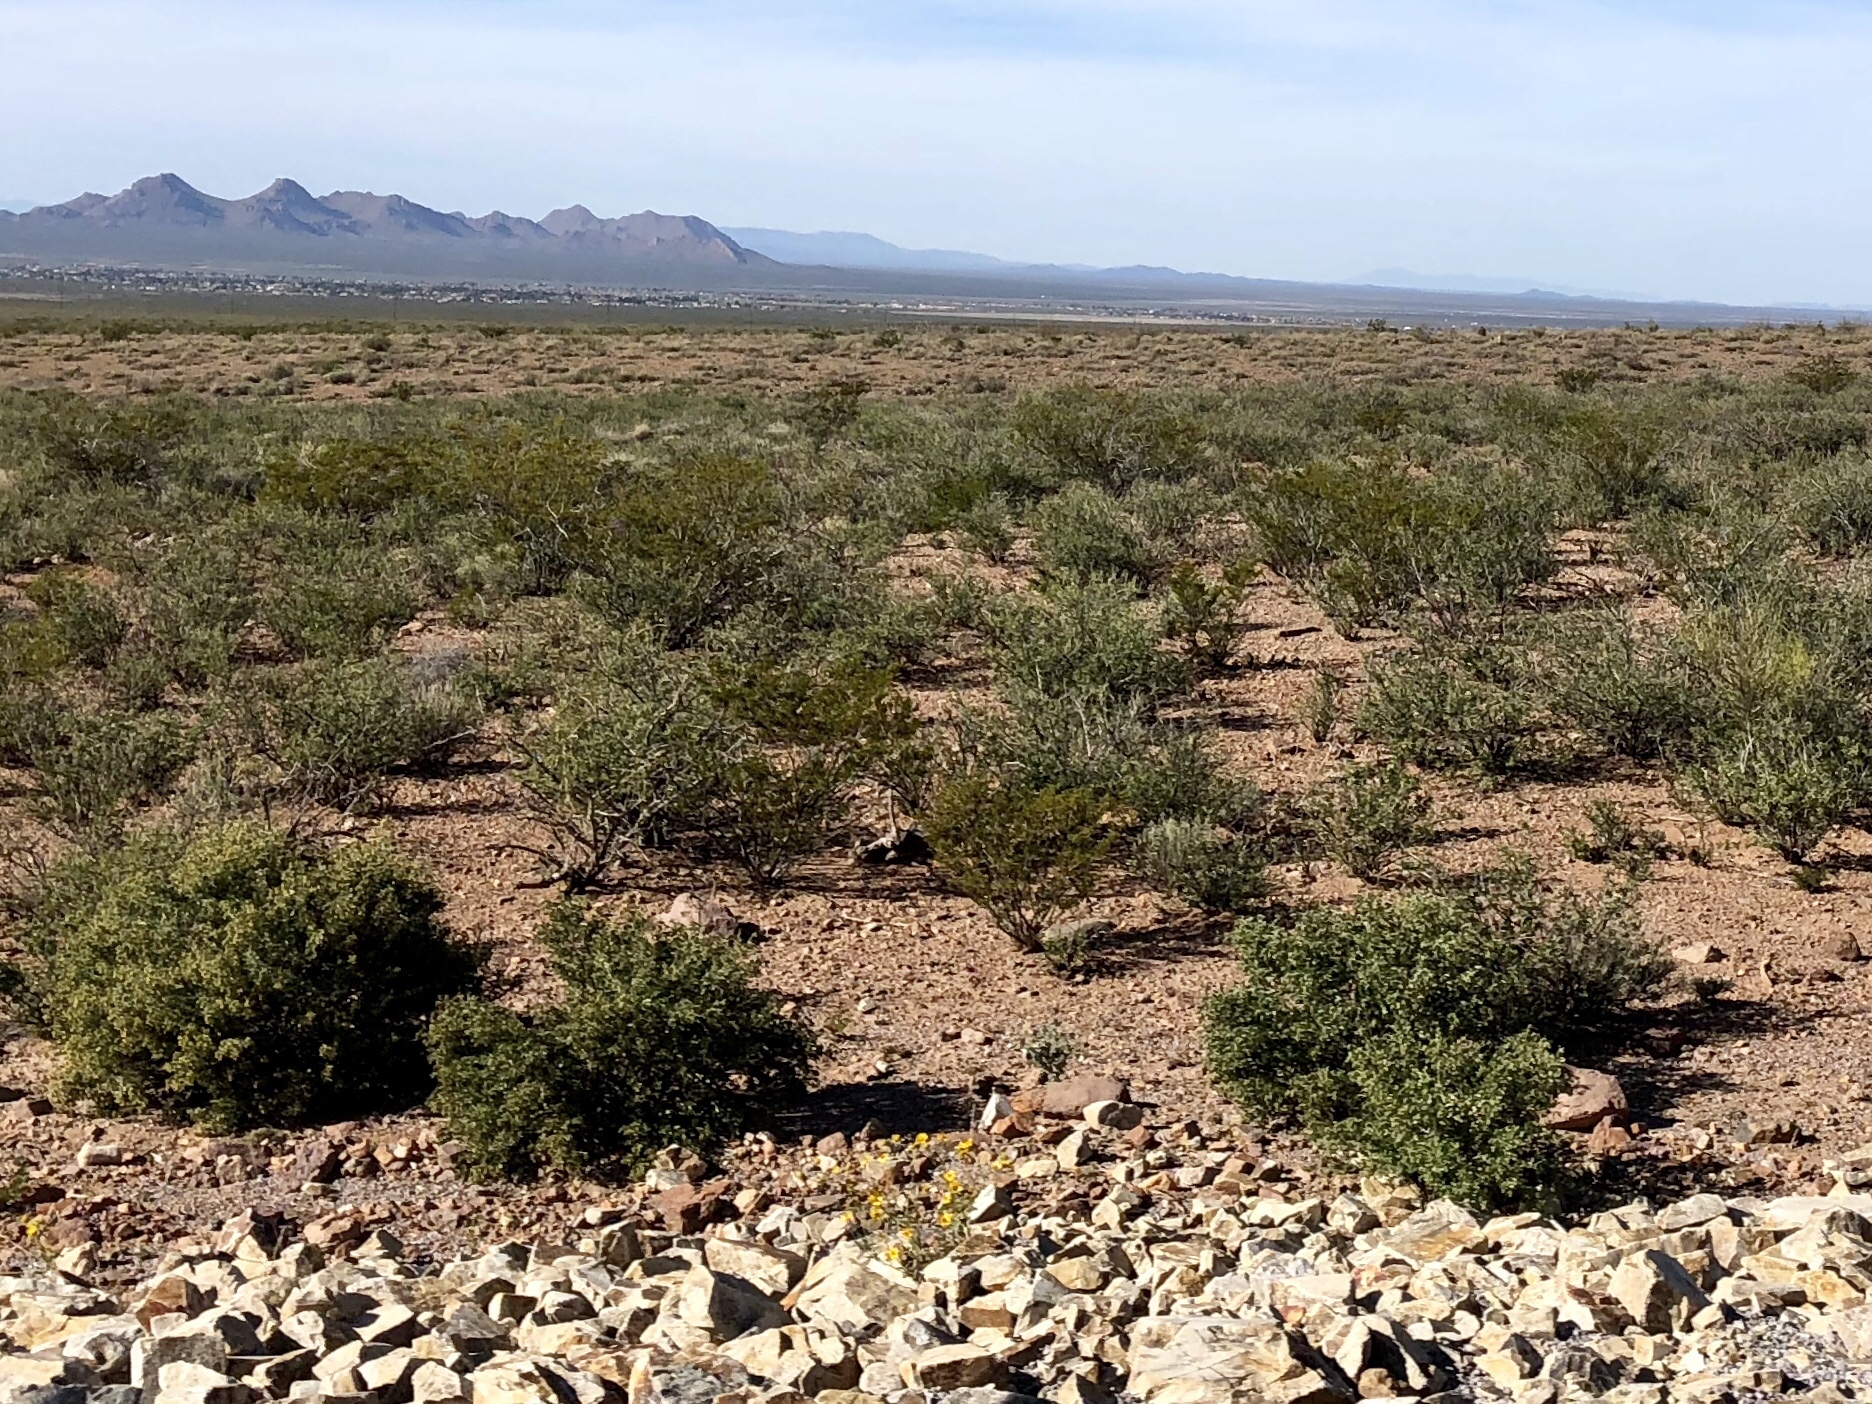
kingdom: Plantae
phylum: Tracheophyta
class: Magnoliopsida
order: Zygophyllales
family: Zygophyllaceae
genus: Larrea
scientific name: Larrea tridentata
